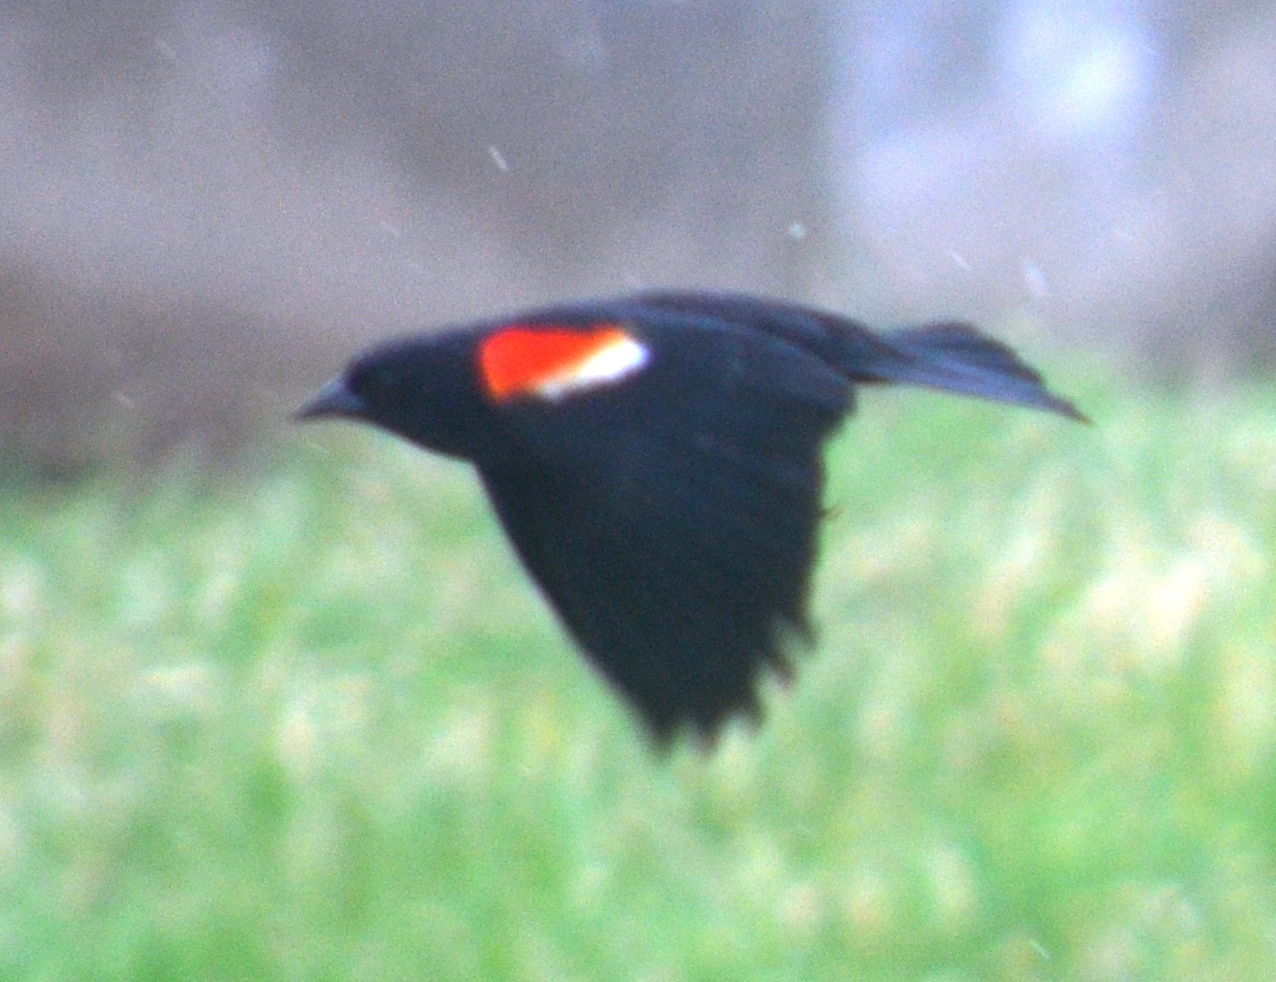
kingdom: Animalia
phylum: Chordata
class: Aves
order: Passeriformes
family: Icteridae
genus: Agelaius
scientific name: Agelaius phoeniceus
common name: Red-winged blackbird
